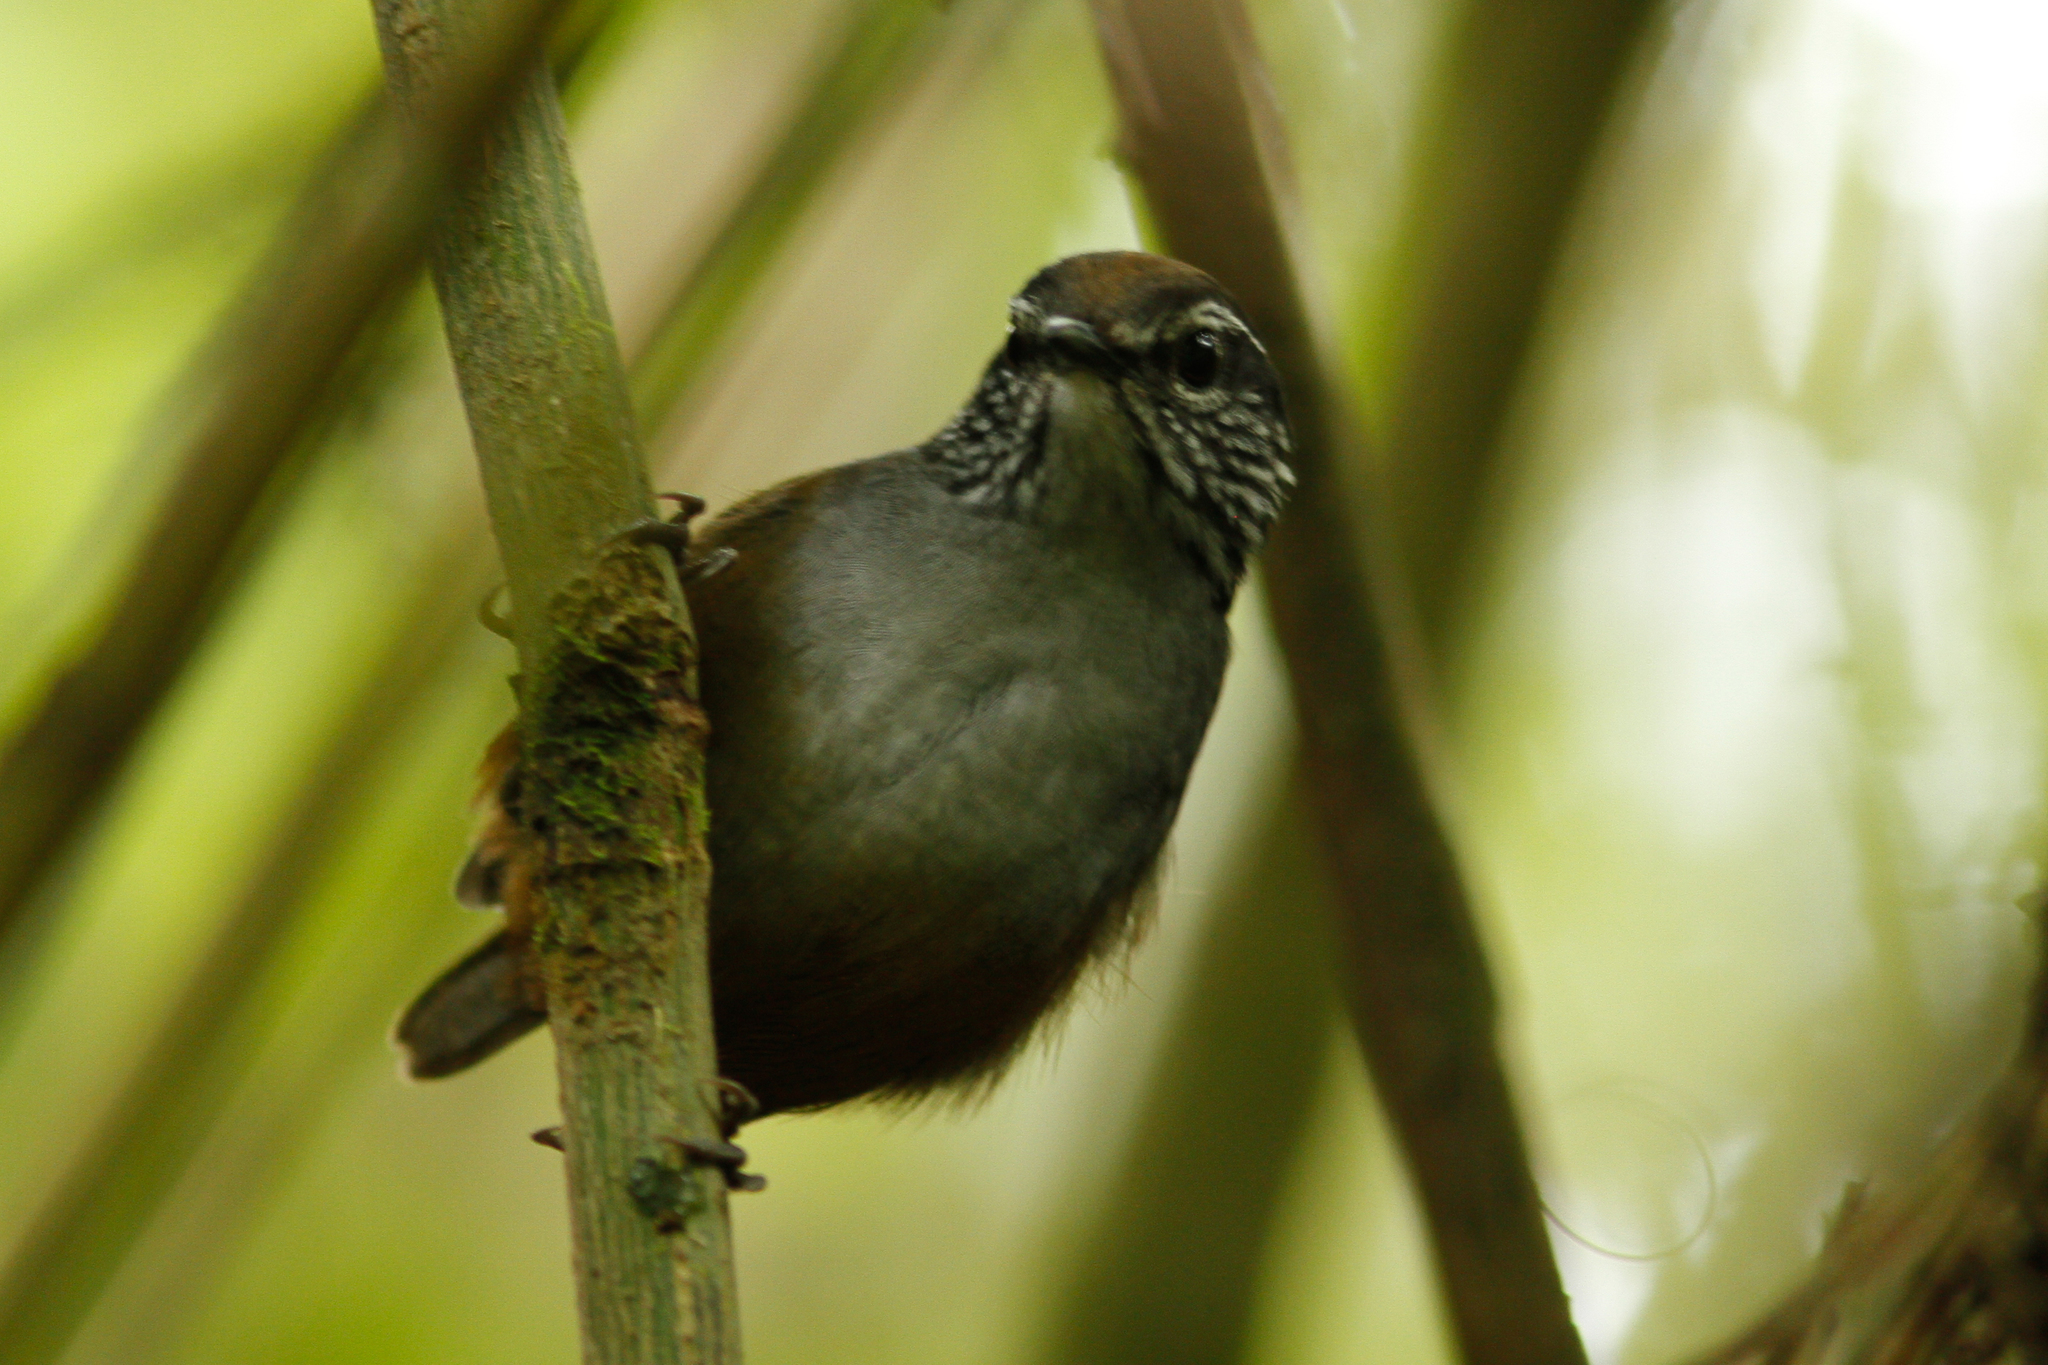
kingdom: Animalia
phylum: Chordata
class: Aves
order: Passeriformes
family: Troglodytidae
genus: Henicorhina
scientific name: Henicorhina leucophrys
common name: Gray-breasted wood-wren
